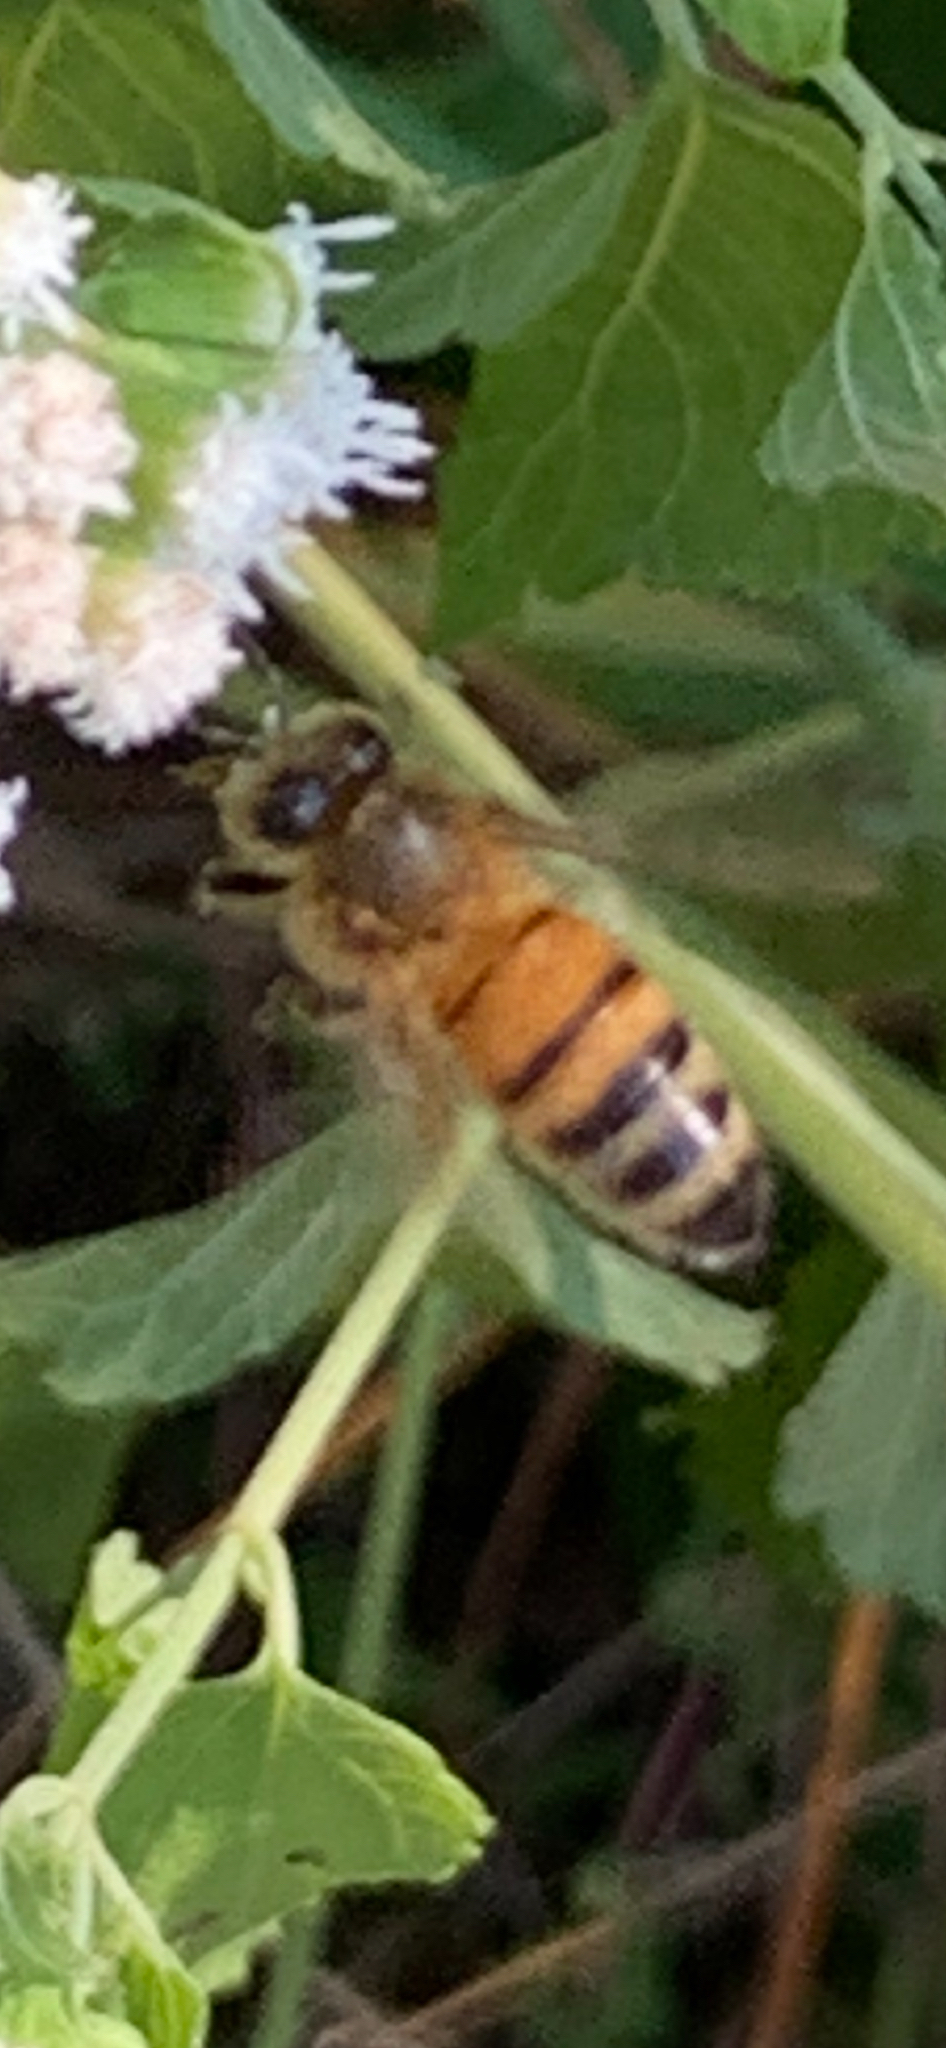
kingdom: Animalia
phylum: Arthropoda
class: Insecta
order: Hymenoptera
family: Apidae
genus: Apis
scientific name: Apis mellifera
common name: Honey bee
